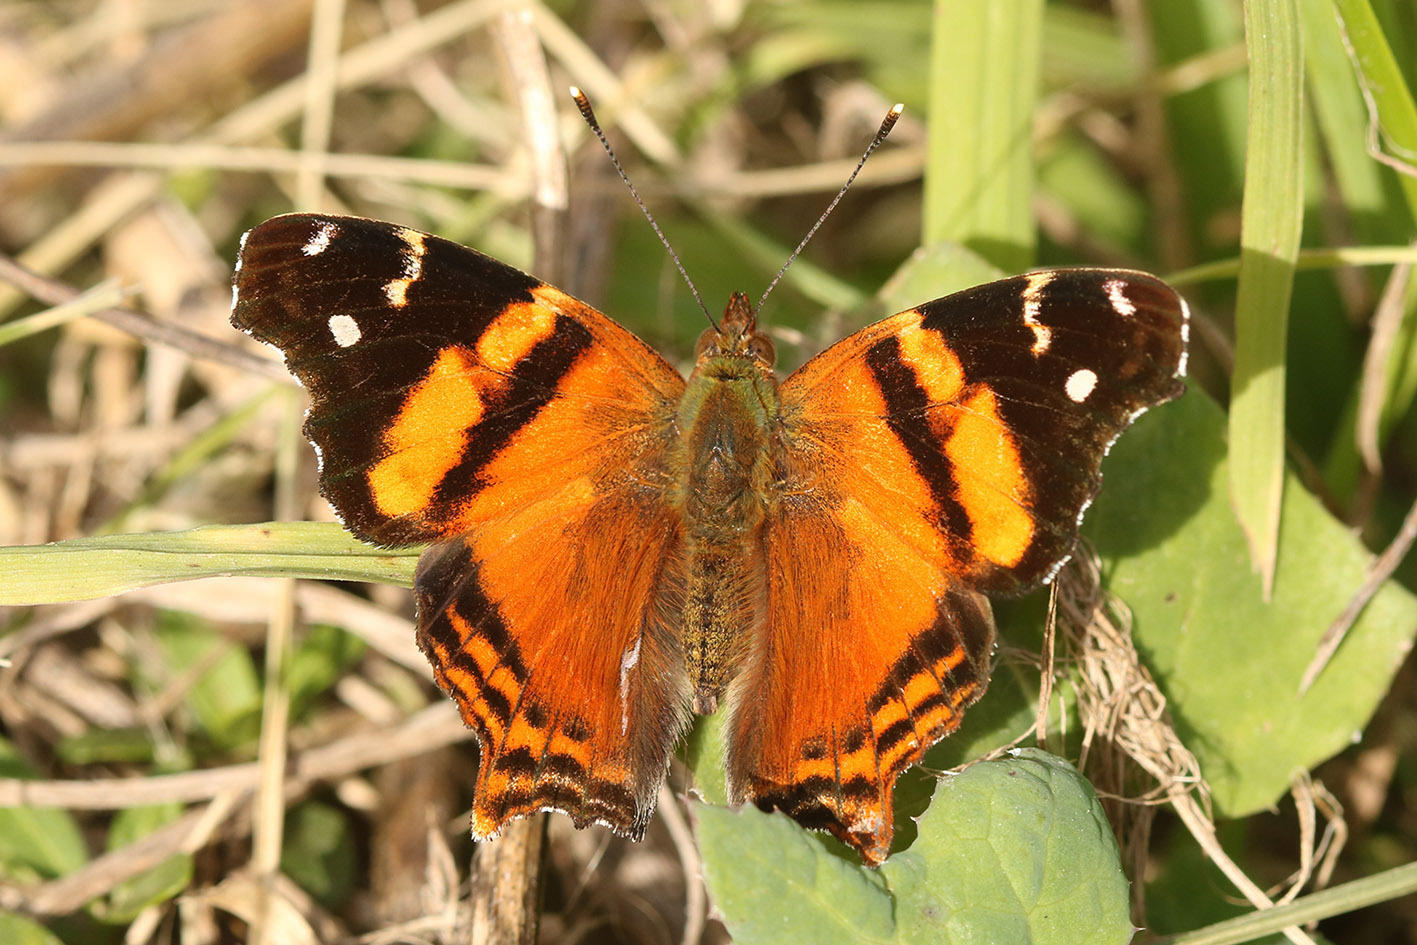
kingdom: Animalia
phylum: Arthropoda
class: Insecta
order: Lepidoptera
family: Nymphalidae
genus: Hypanartia
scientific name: Hypanartia bella
